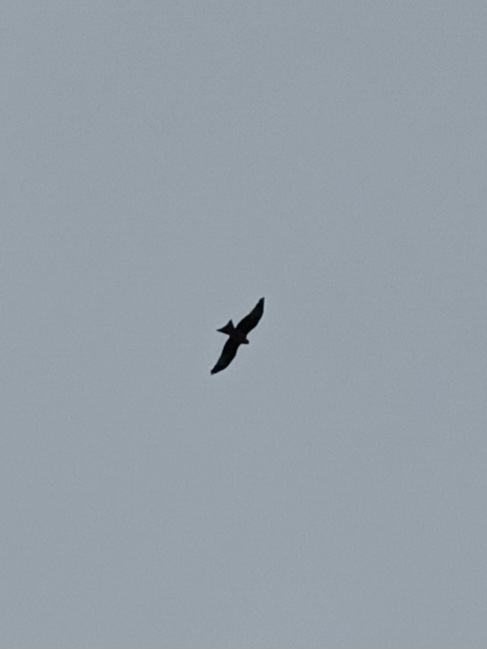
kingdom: Animalia
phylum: Chordata
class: Aves
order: Accipitriformes
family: Accipitridae
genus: Milvus
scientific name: Milvus milvus
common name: Red kite
